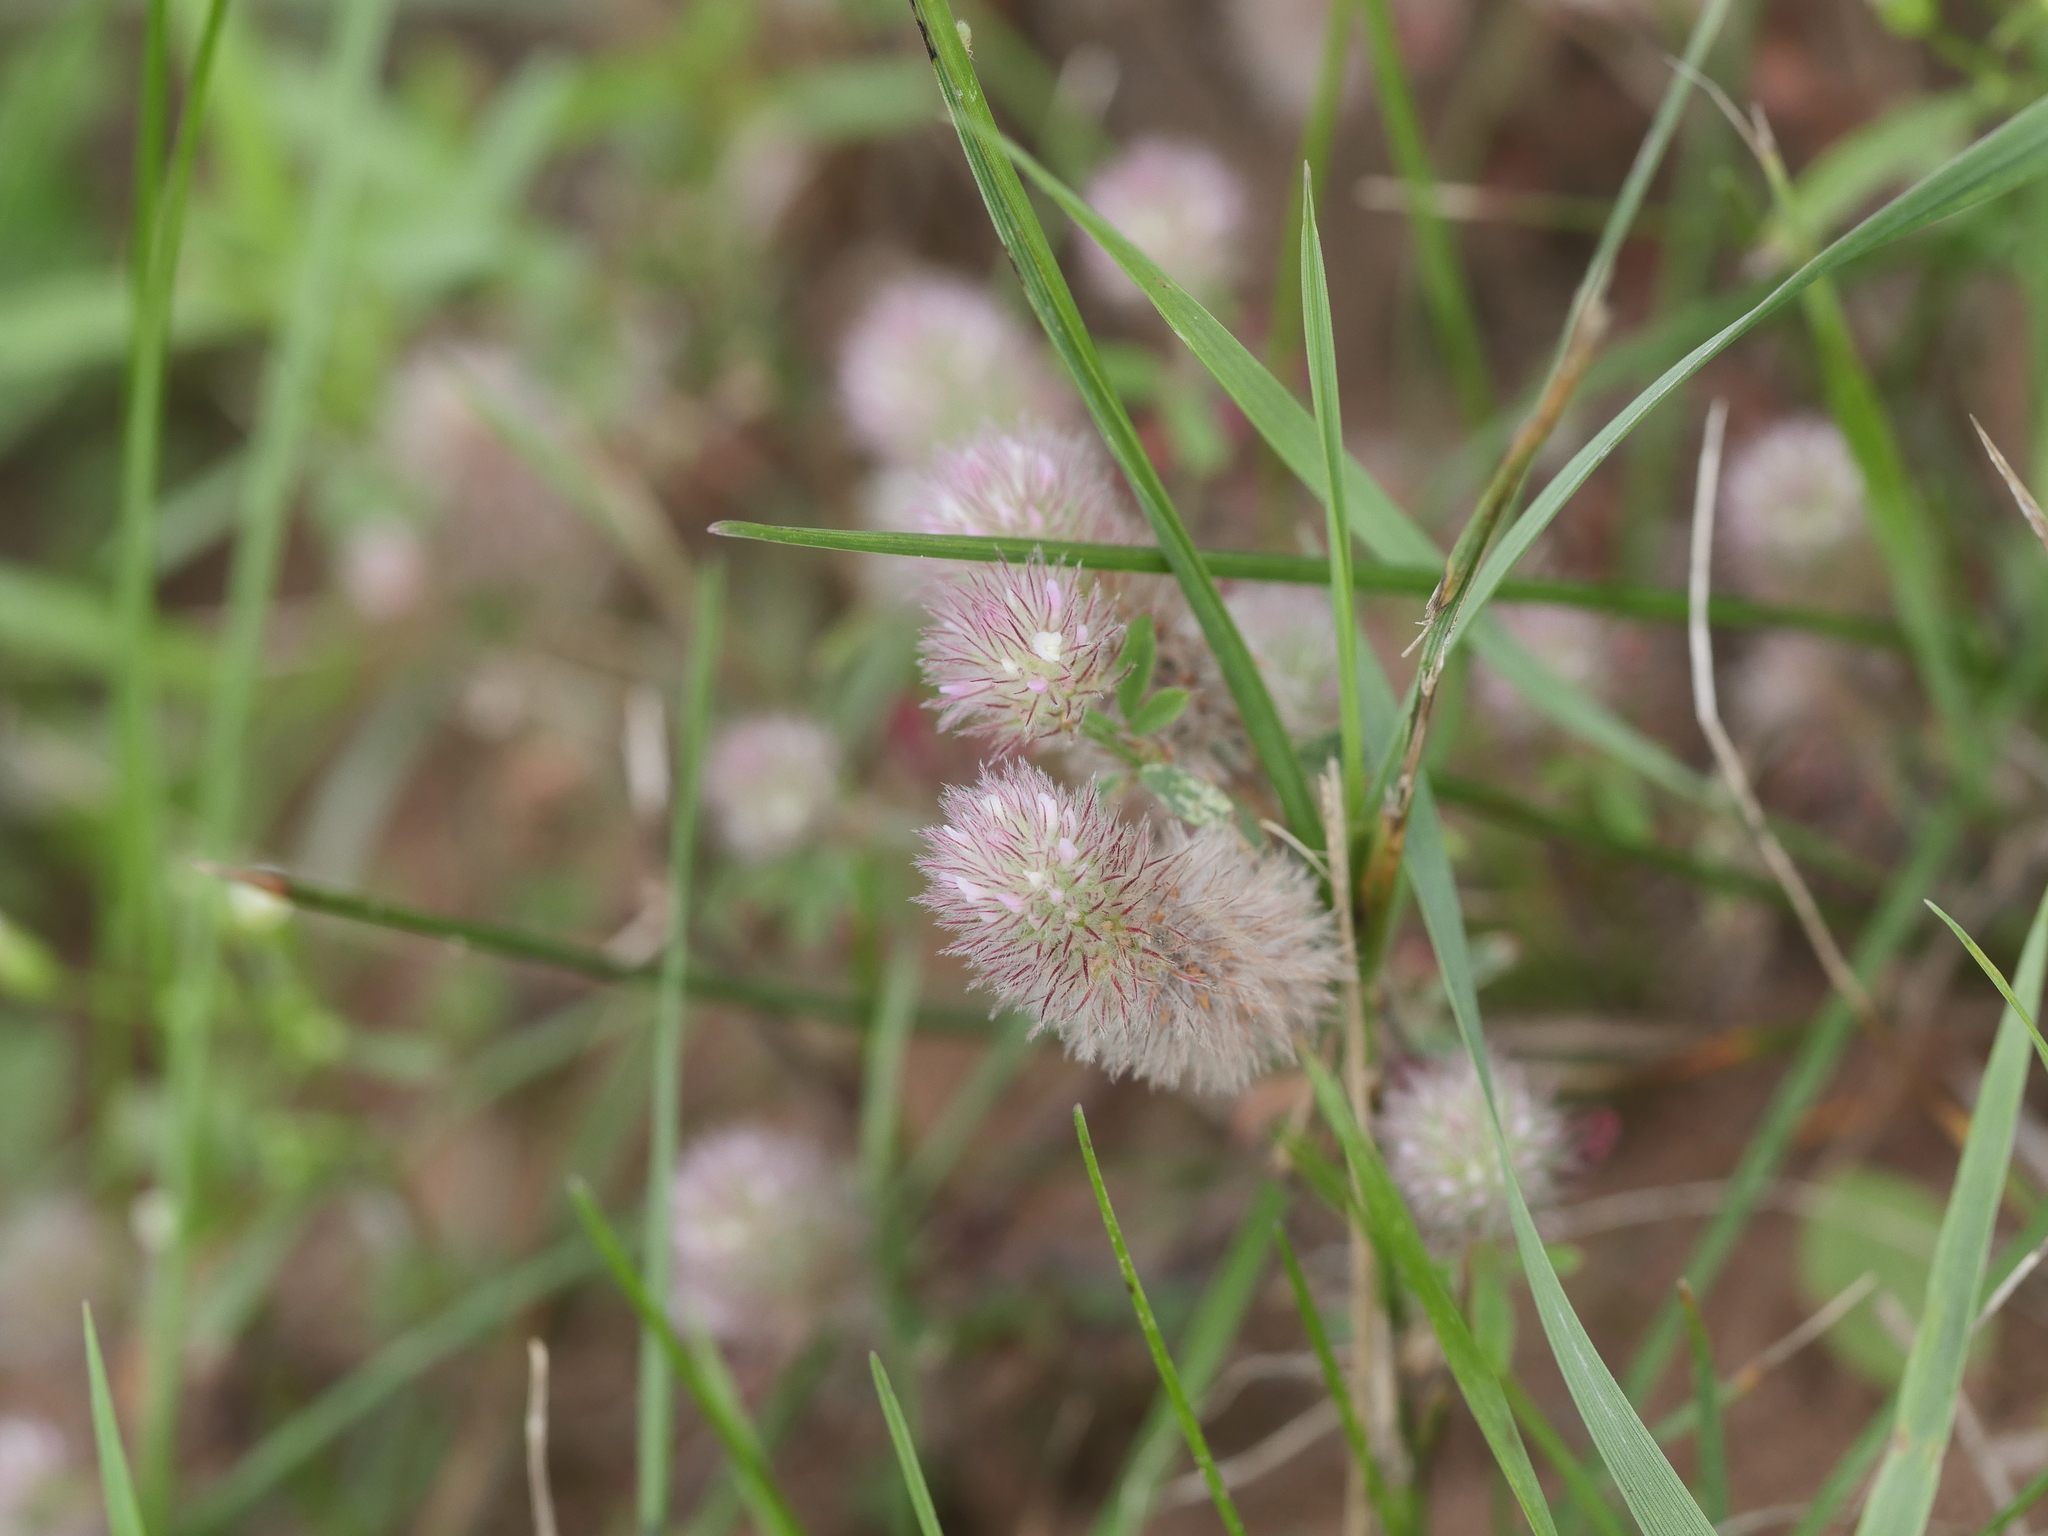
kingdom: Plantae
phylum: Tracheophyta
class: Magnoliopsida
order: Fabales
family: Fabaceae
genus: Trifolium
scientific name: Trifolium arvense
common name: Hare's-foot clover
